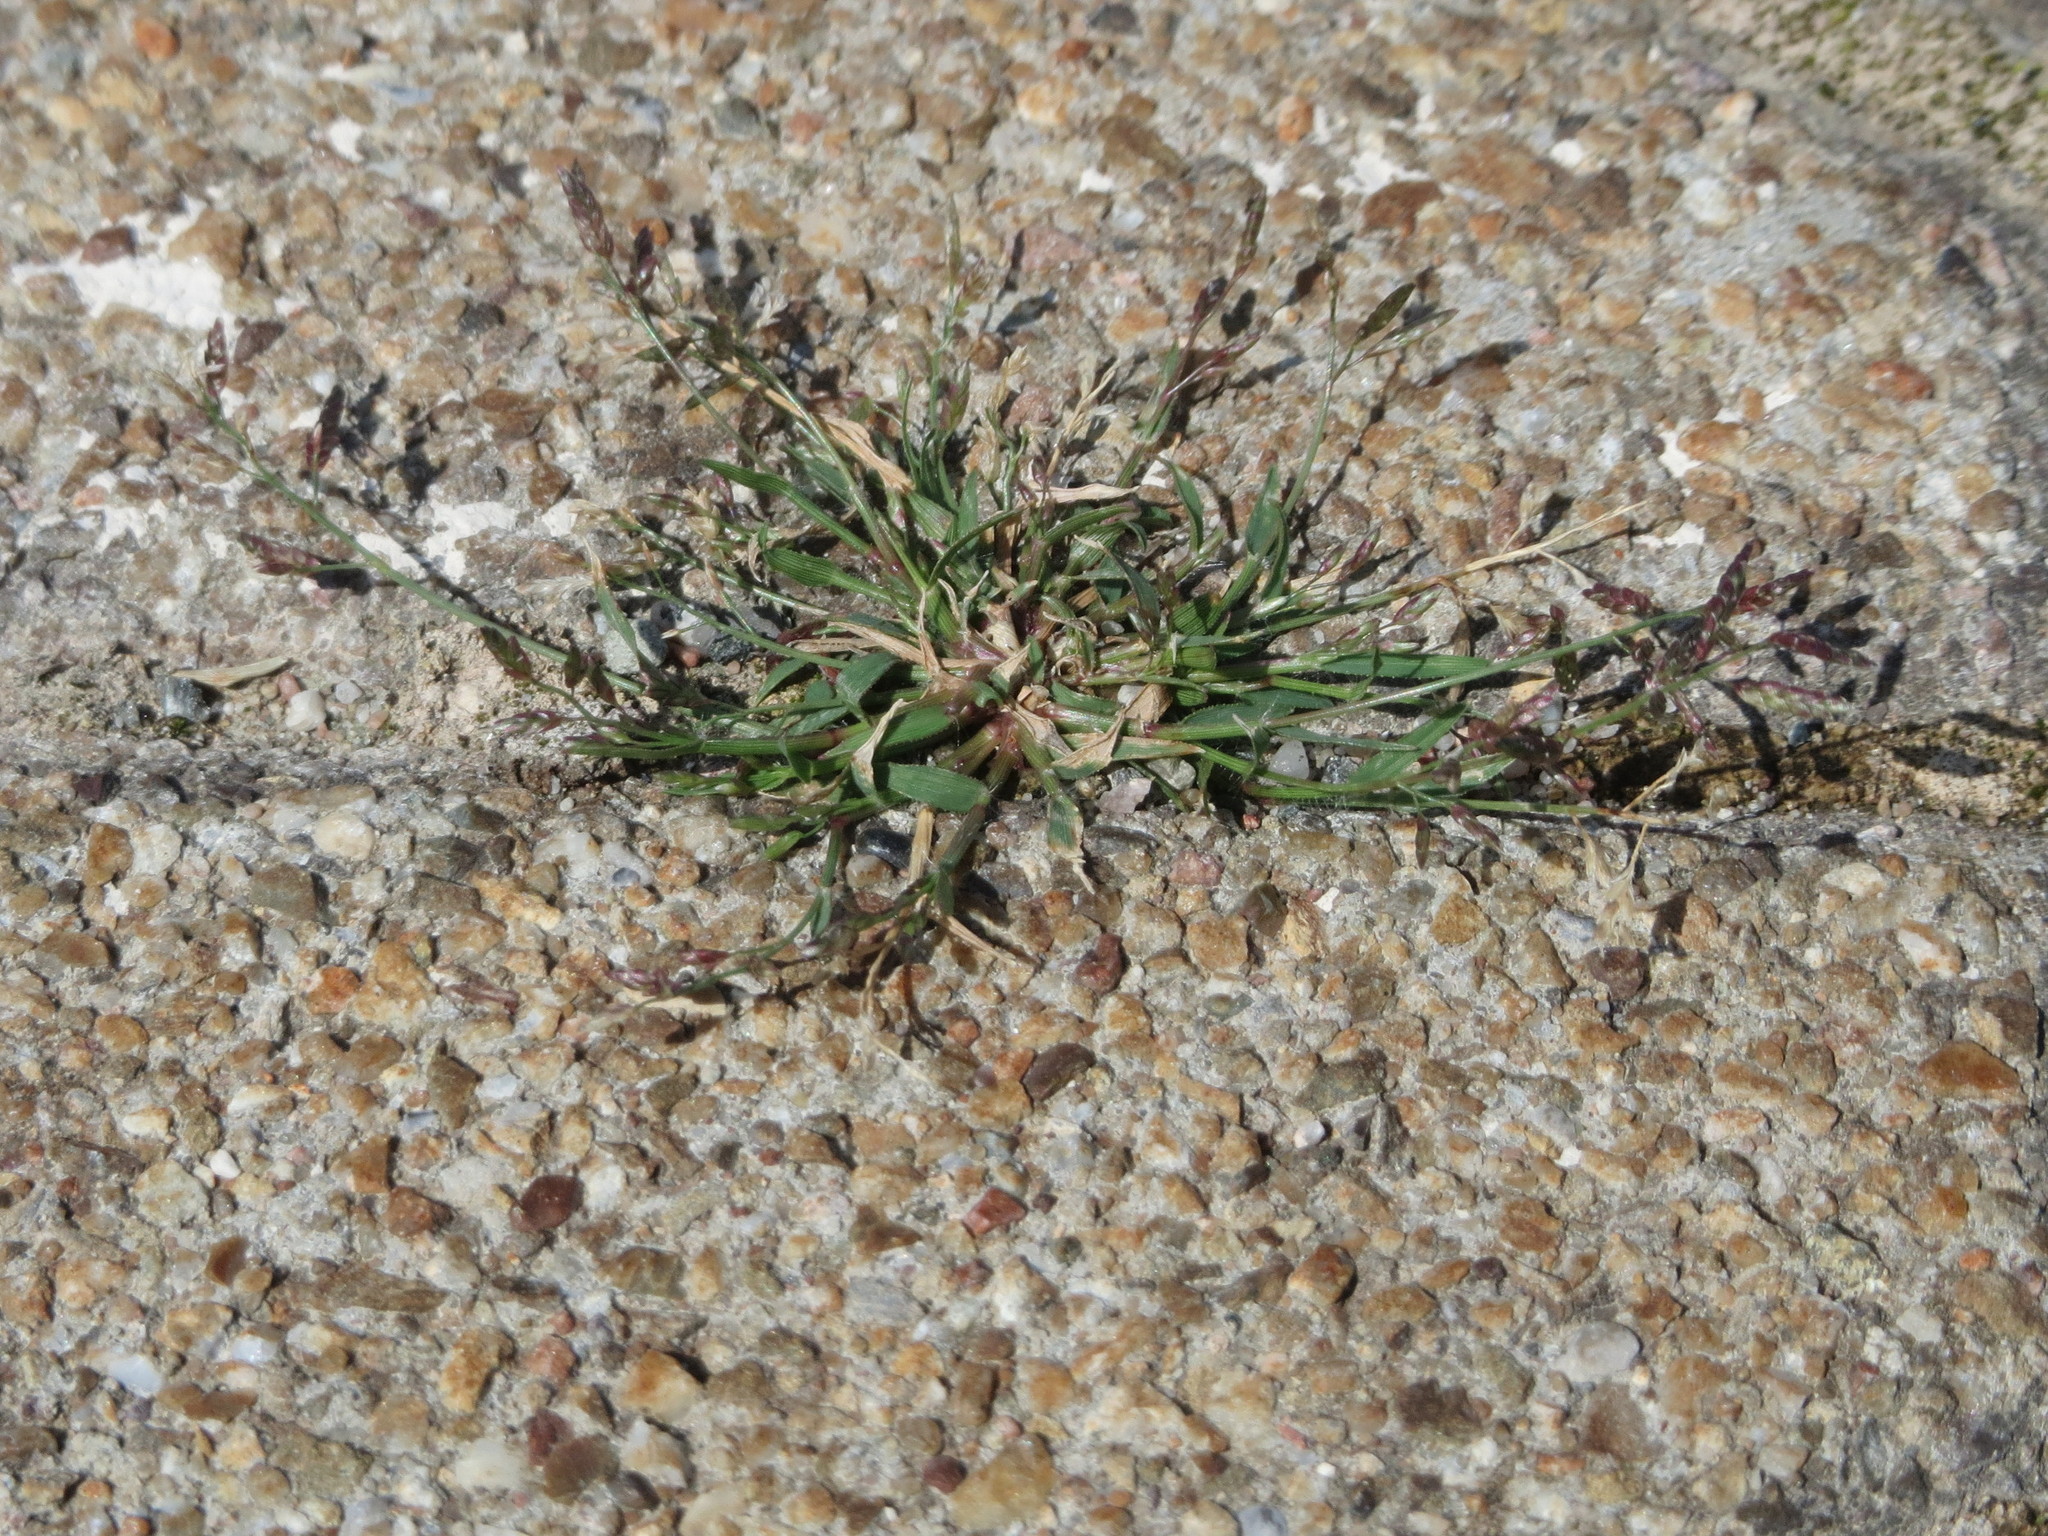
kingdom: Plantae
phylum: Tracheophyta
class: Liliopsida
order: Poales
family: Poaceae
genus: Eragrostis
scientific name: Eragrostis minor
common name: Small love-grass
